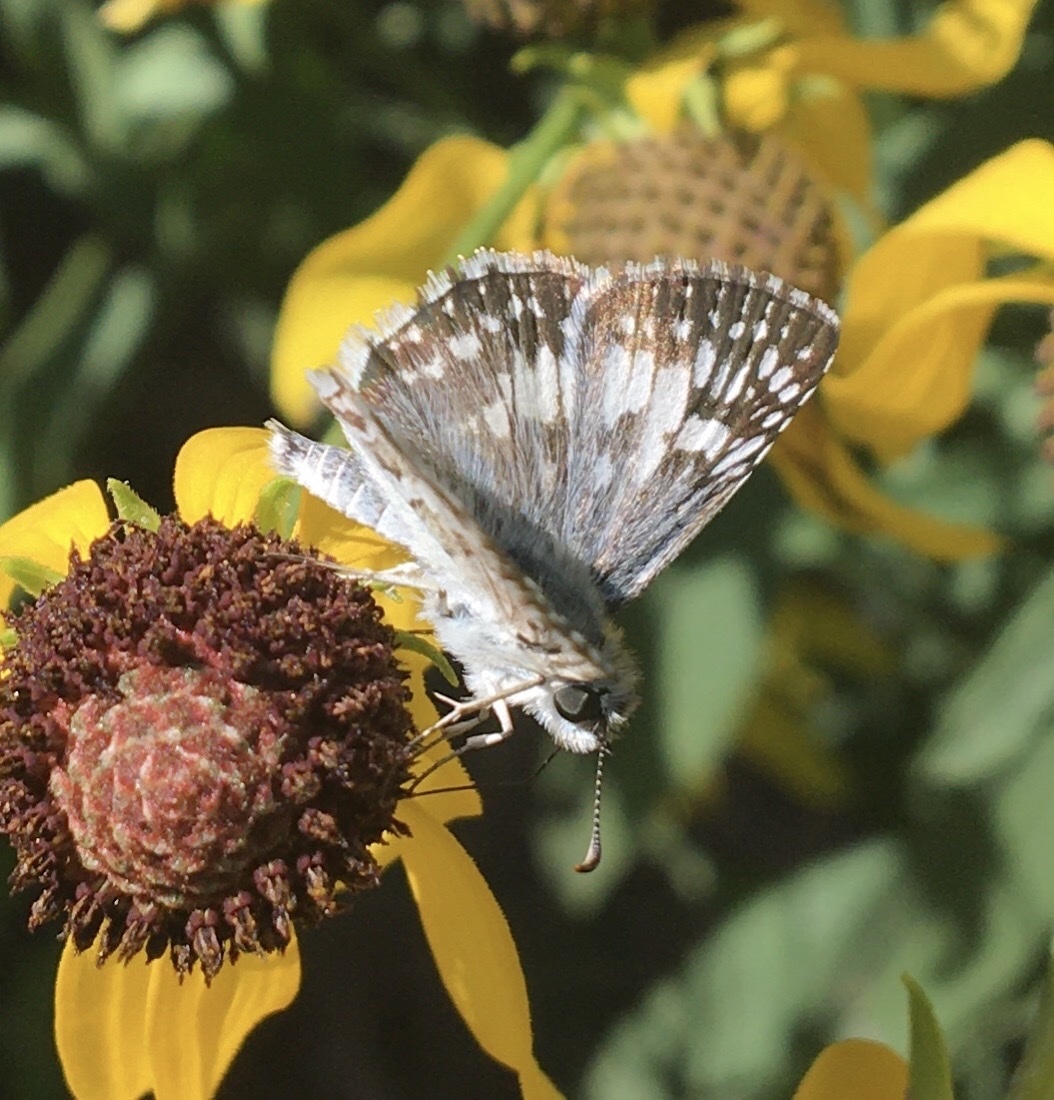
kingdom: Animalia
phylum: Arthropoda
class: Insecta
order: Lepidoptera
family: Hesperiidae
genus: Burnsius
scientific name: Burnsius
